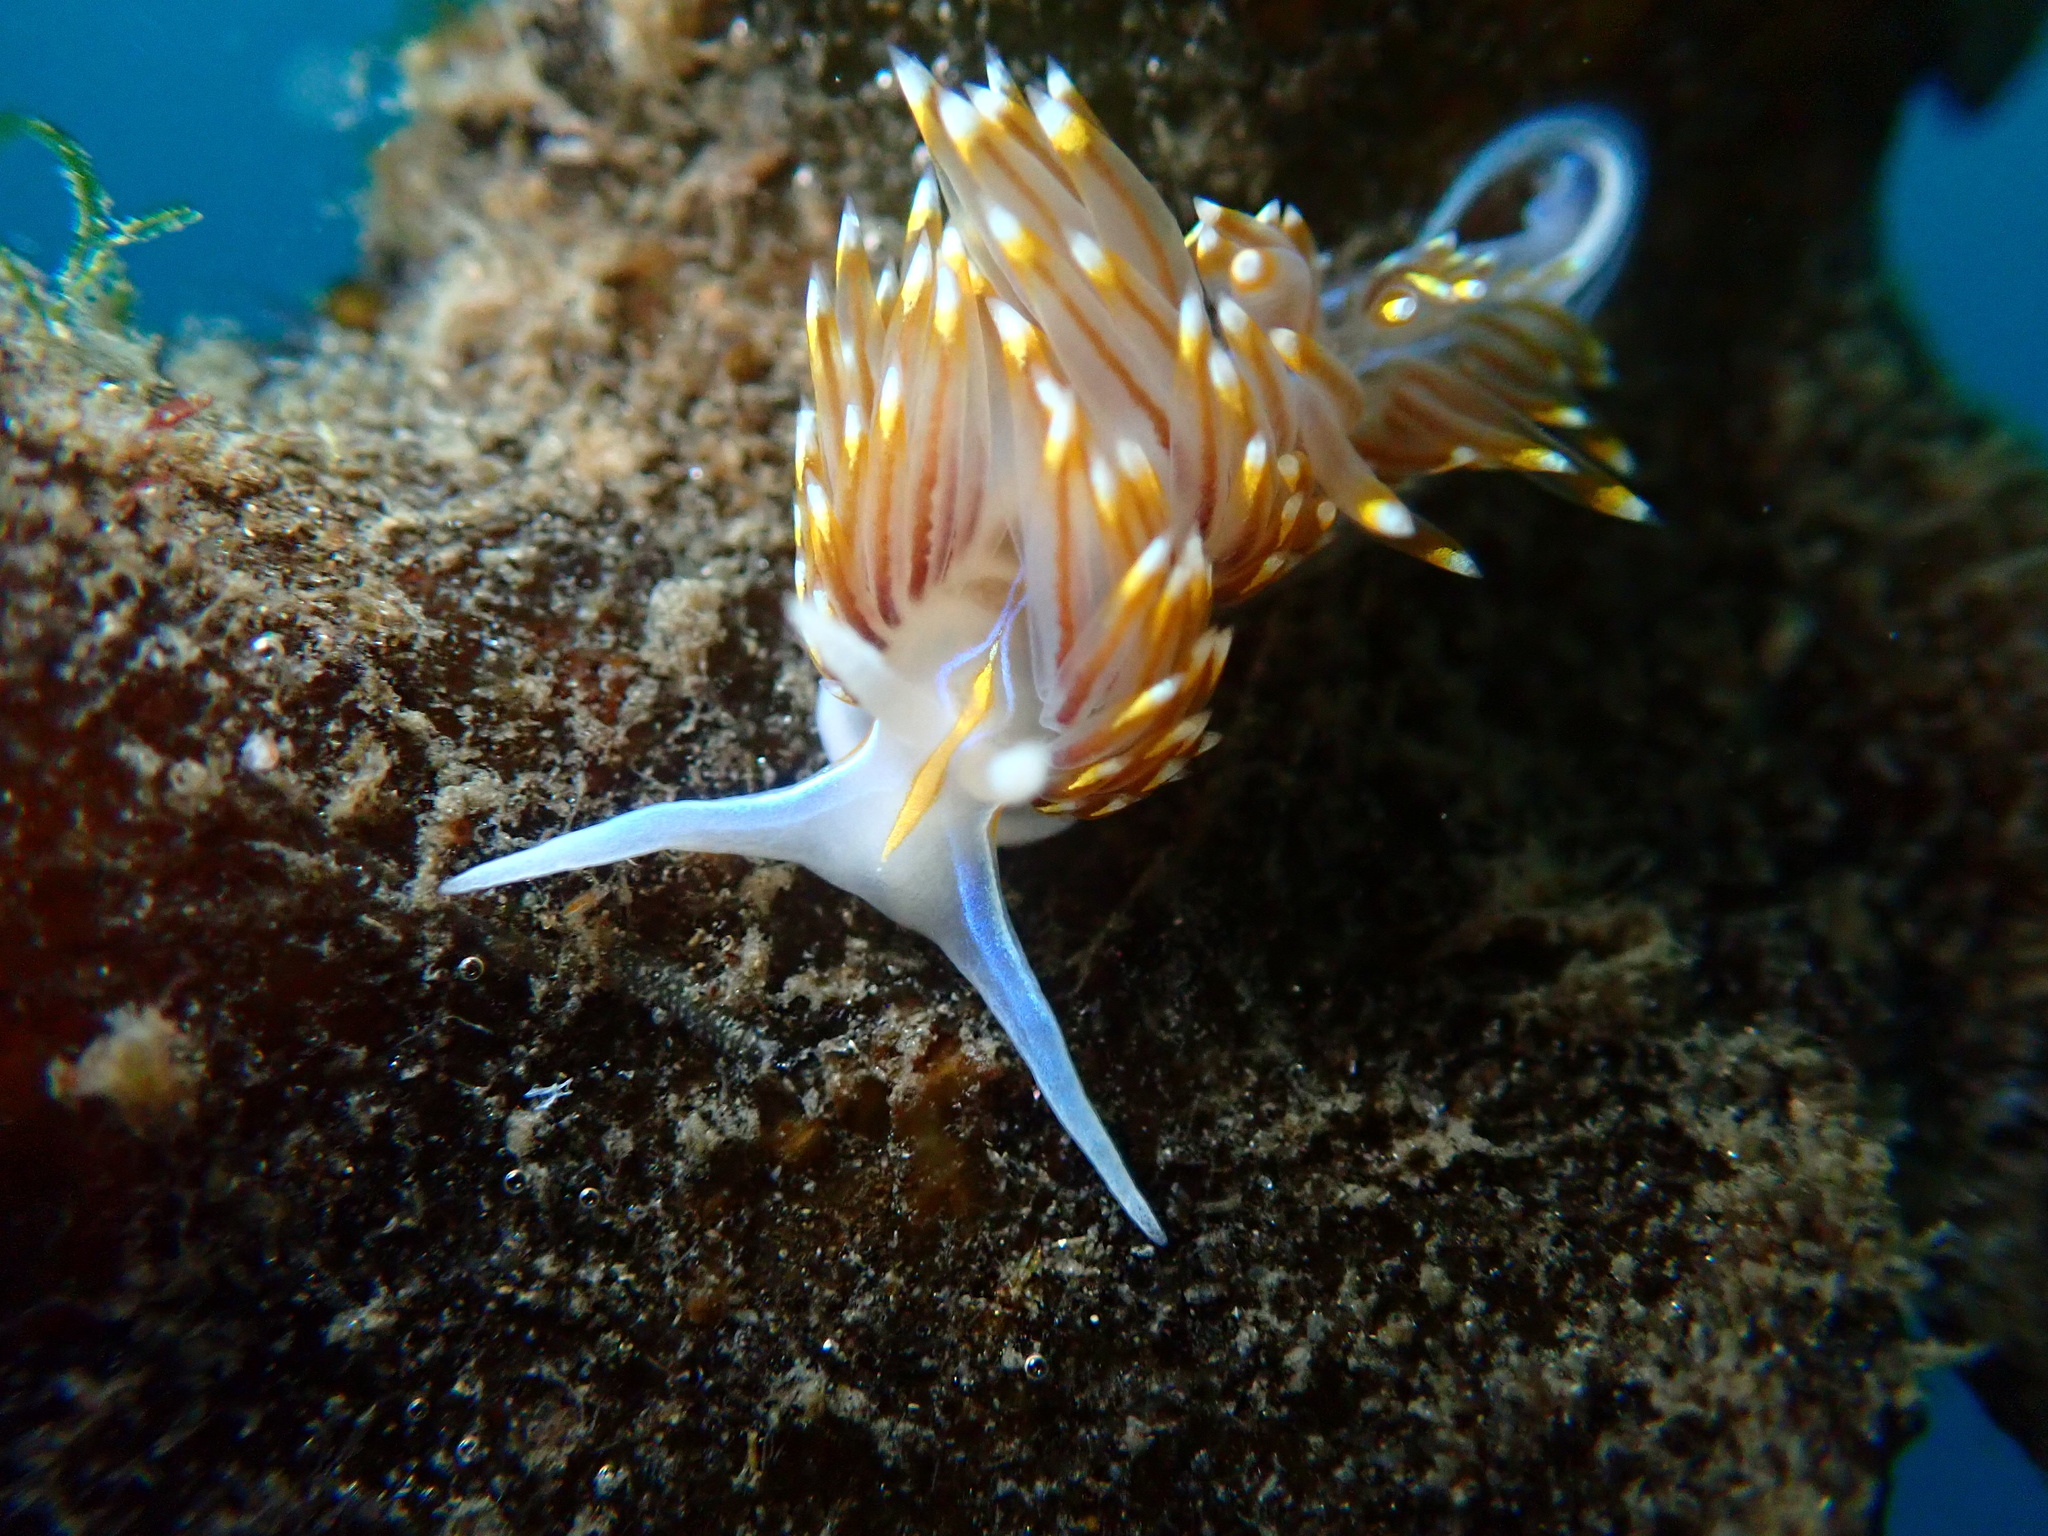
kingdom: Animalia
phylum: Mollusca
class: Gastropoda
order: Nudibranchia
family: Myrrhinidae
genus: Hermissenda
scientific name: Hermissenda opalescens
